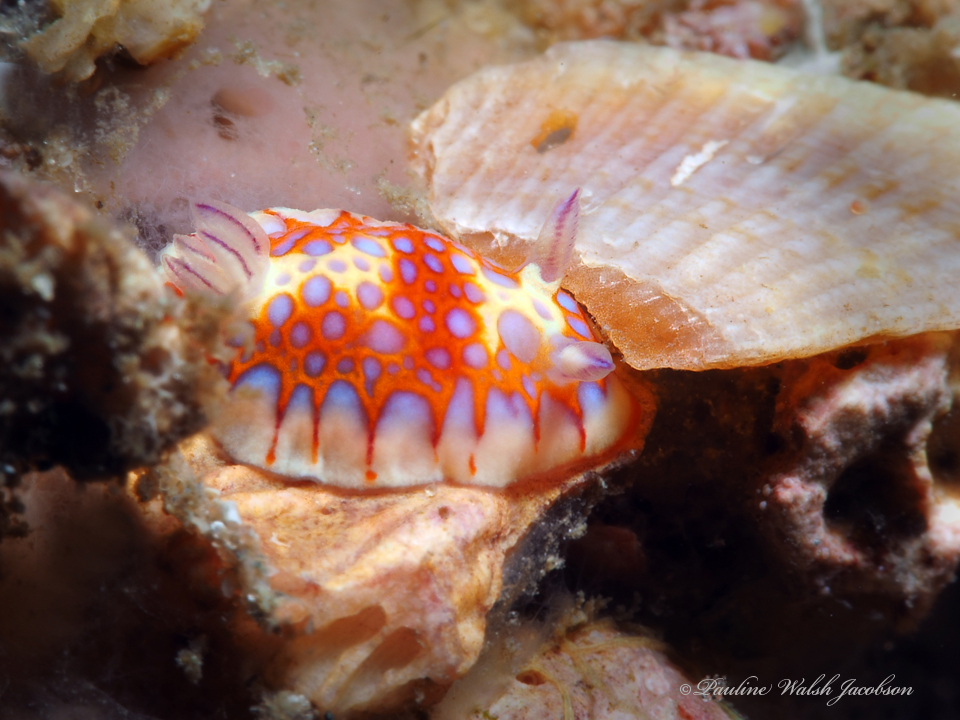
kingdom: Animalia
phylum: Mollusca
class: Gastropoda
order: Nudibranchia
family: Chromodorididae
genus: Felimida
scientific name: Felimida binza
